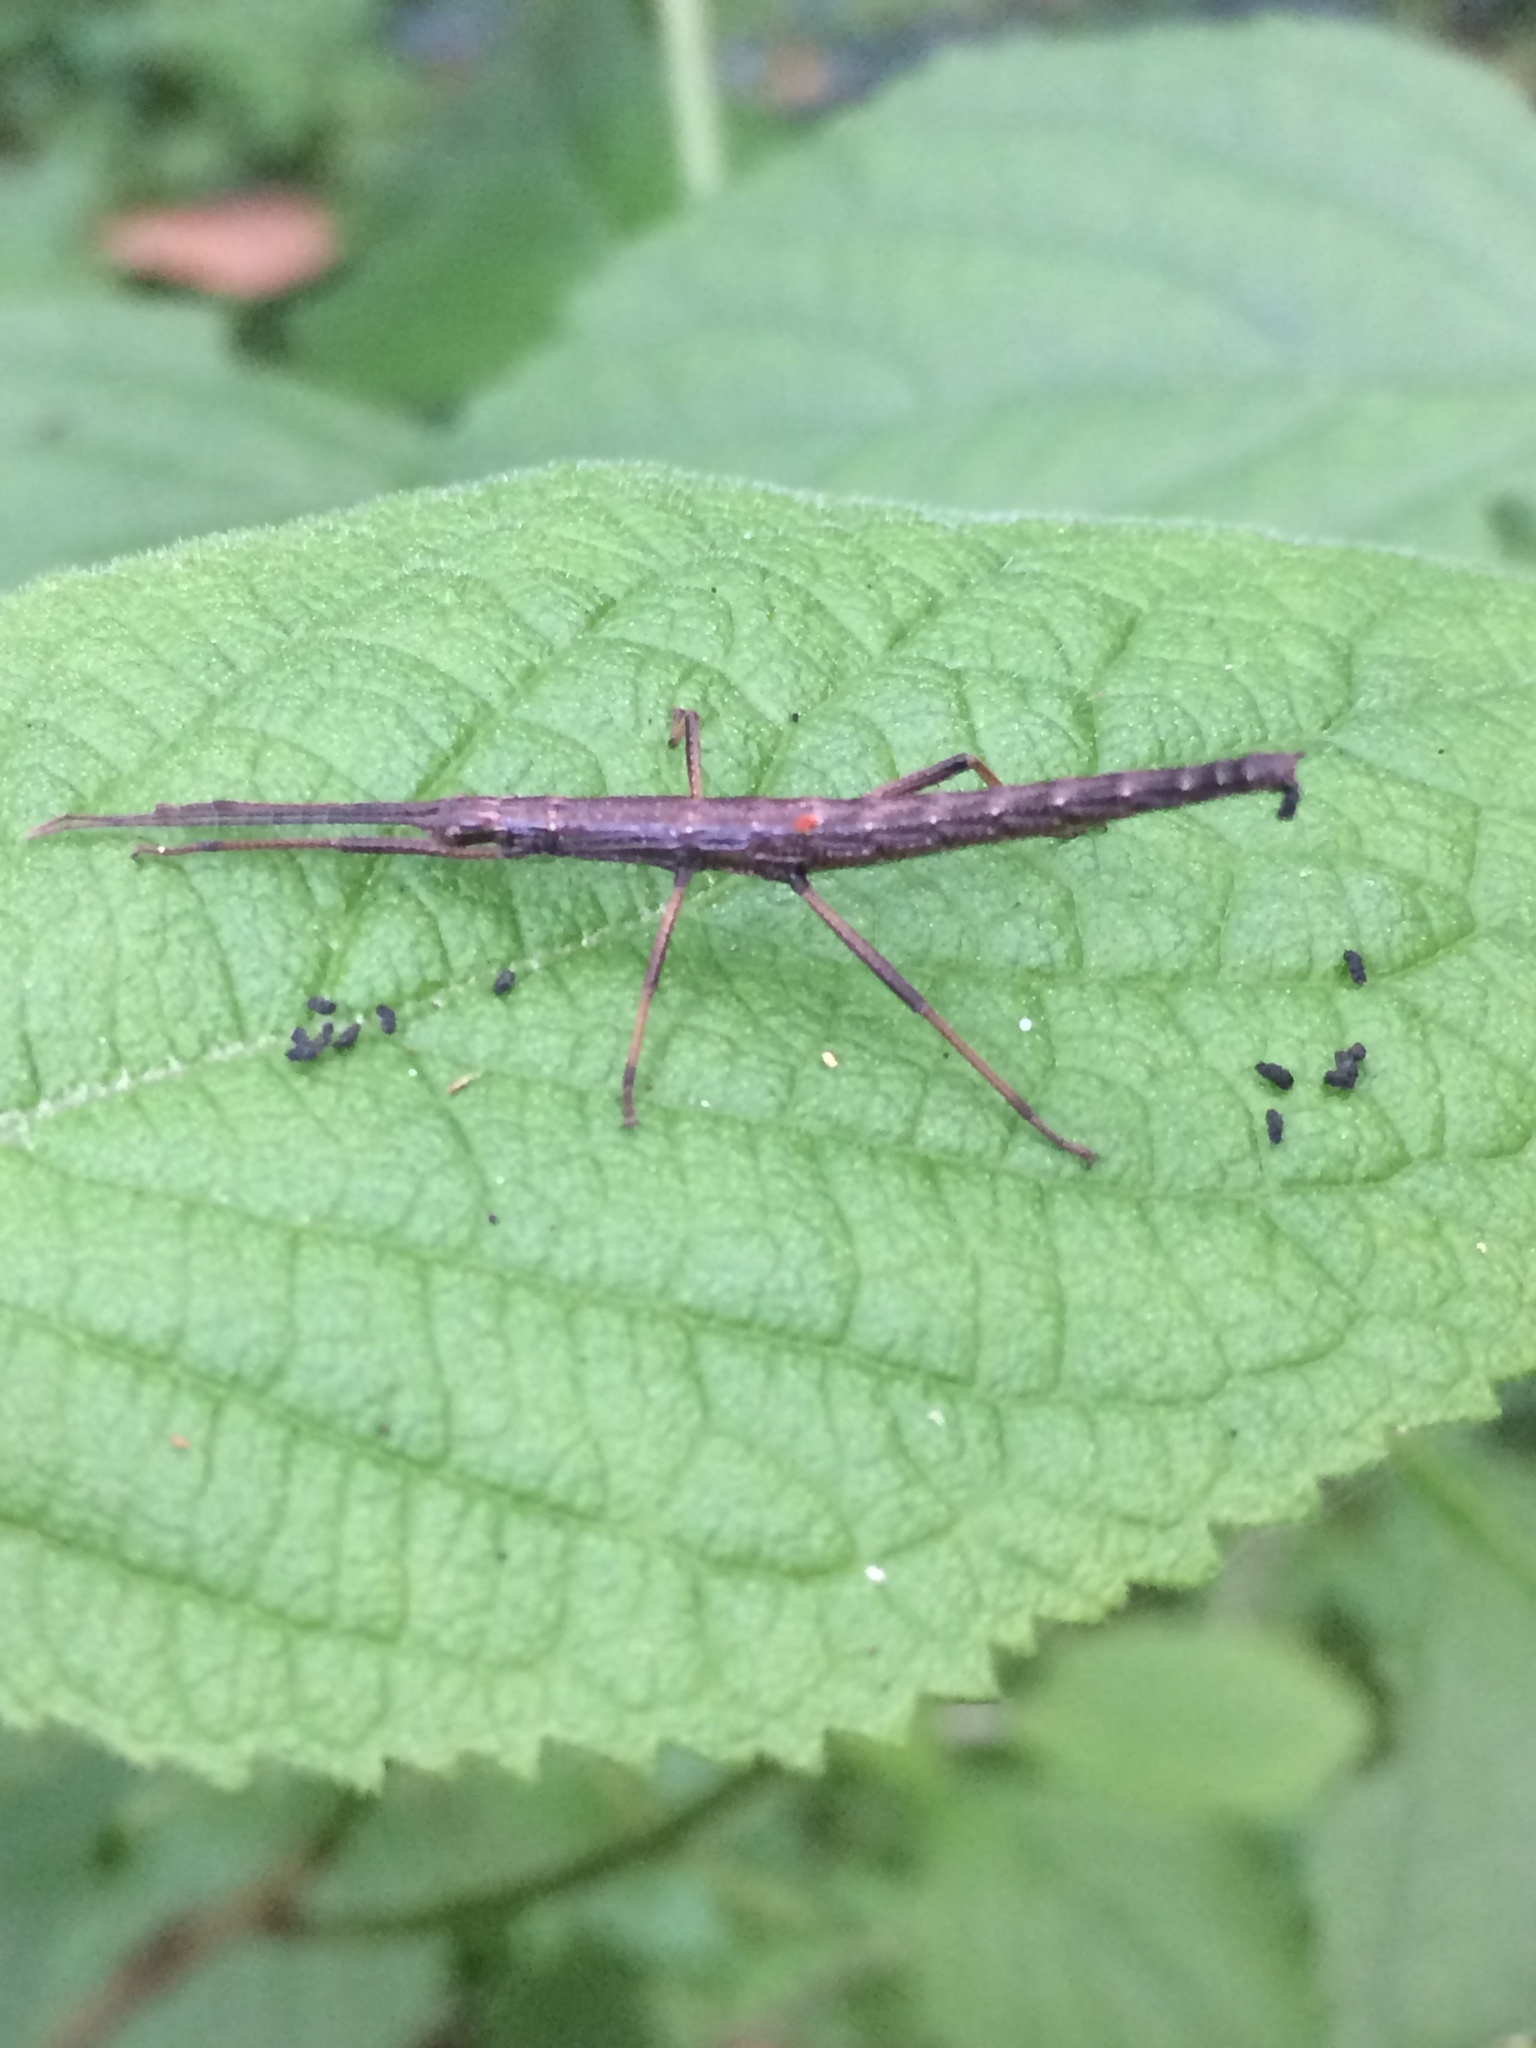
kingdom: Animalia
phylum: Arthropoda
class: Insecta
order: Phasmida
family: Pseudophasmatidae
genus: Anisomorpha
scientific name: Anisomorpha buprestoides
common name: Florida stick insect
